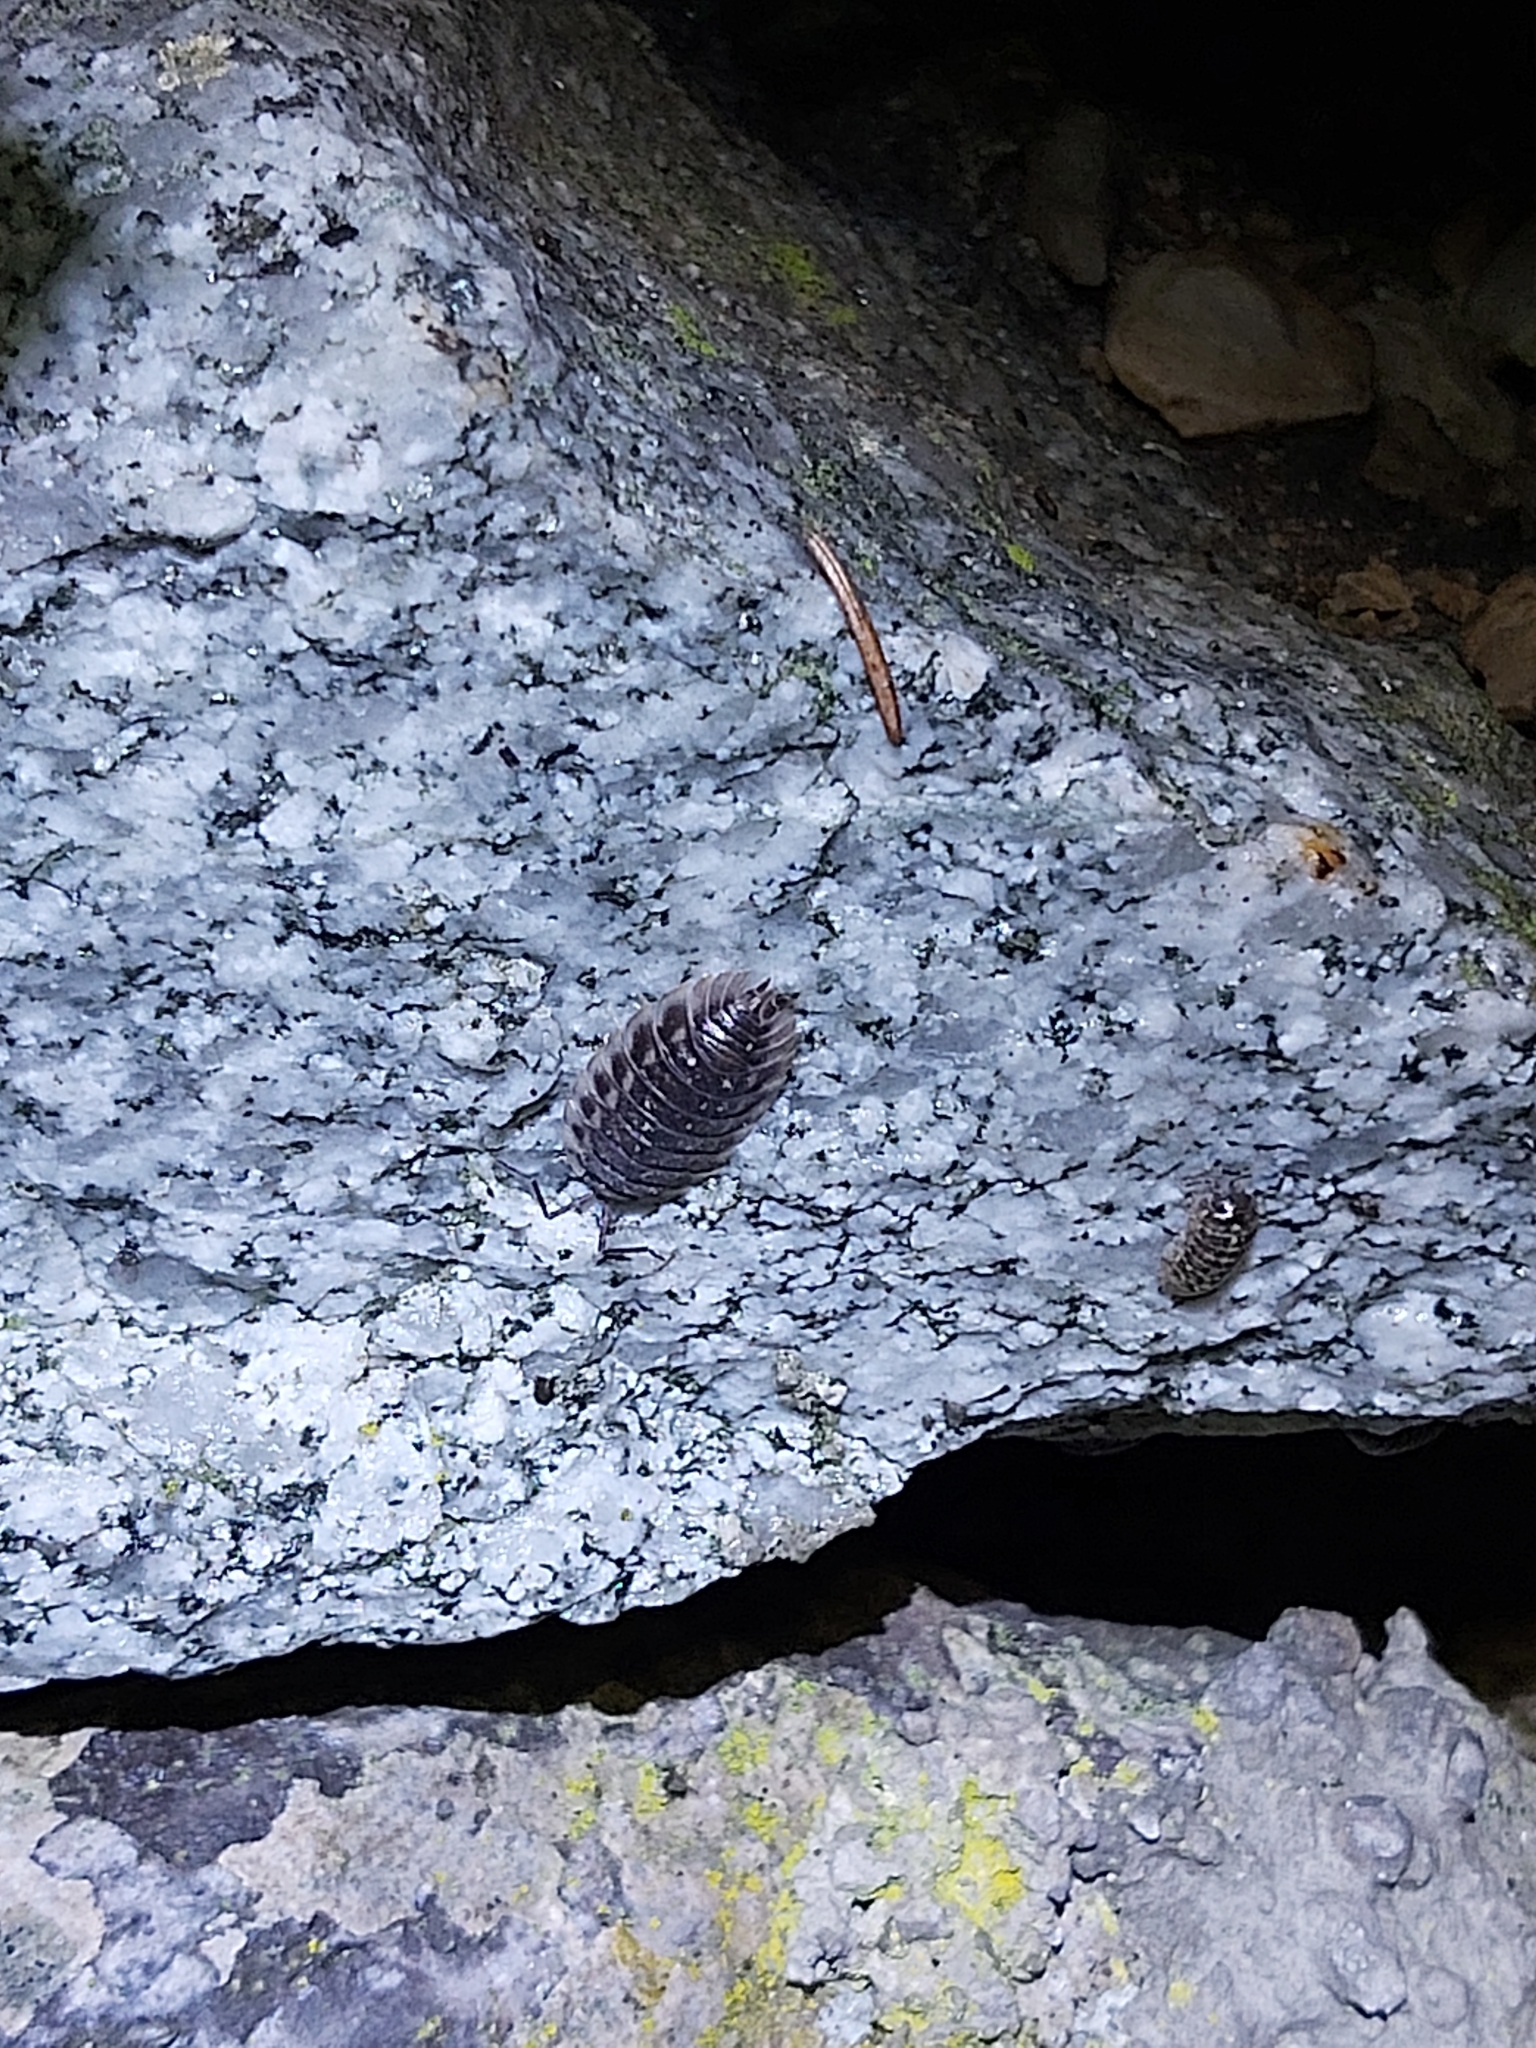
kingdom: Animalia
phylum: Arthropoda
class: Malacostraca
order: Isopoda
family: Oniscidae
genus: Oniscus
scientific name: Oniscus asellus
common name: Common shiny woodlouse
